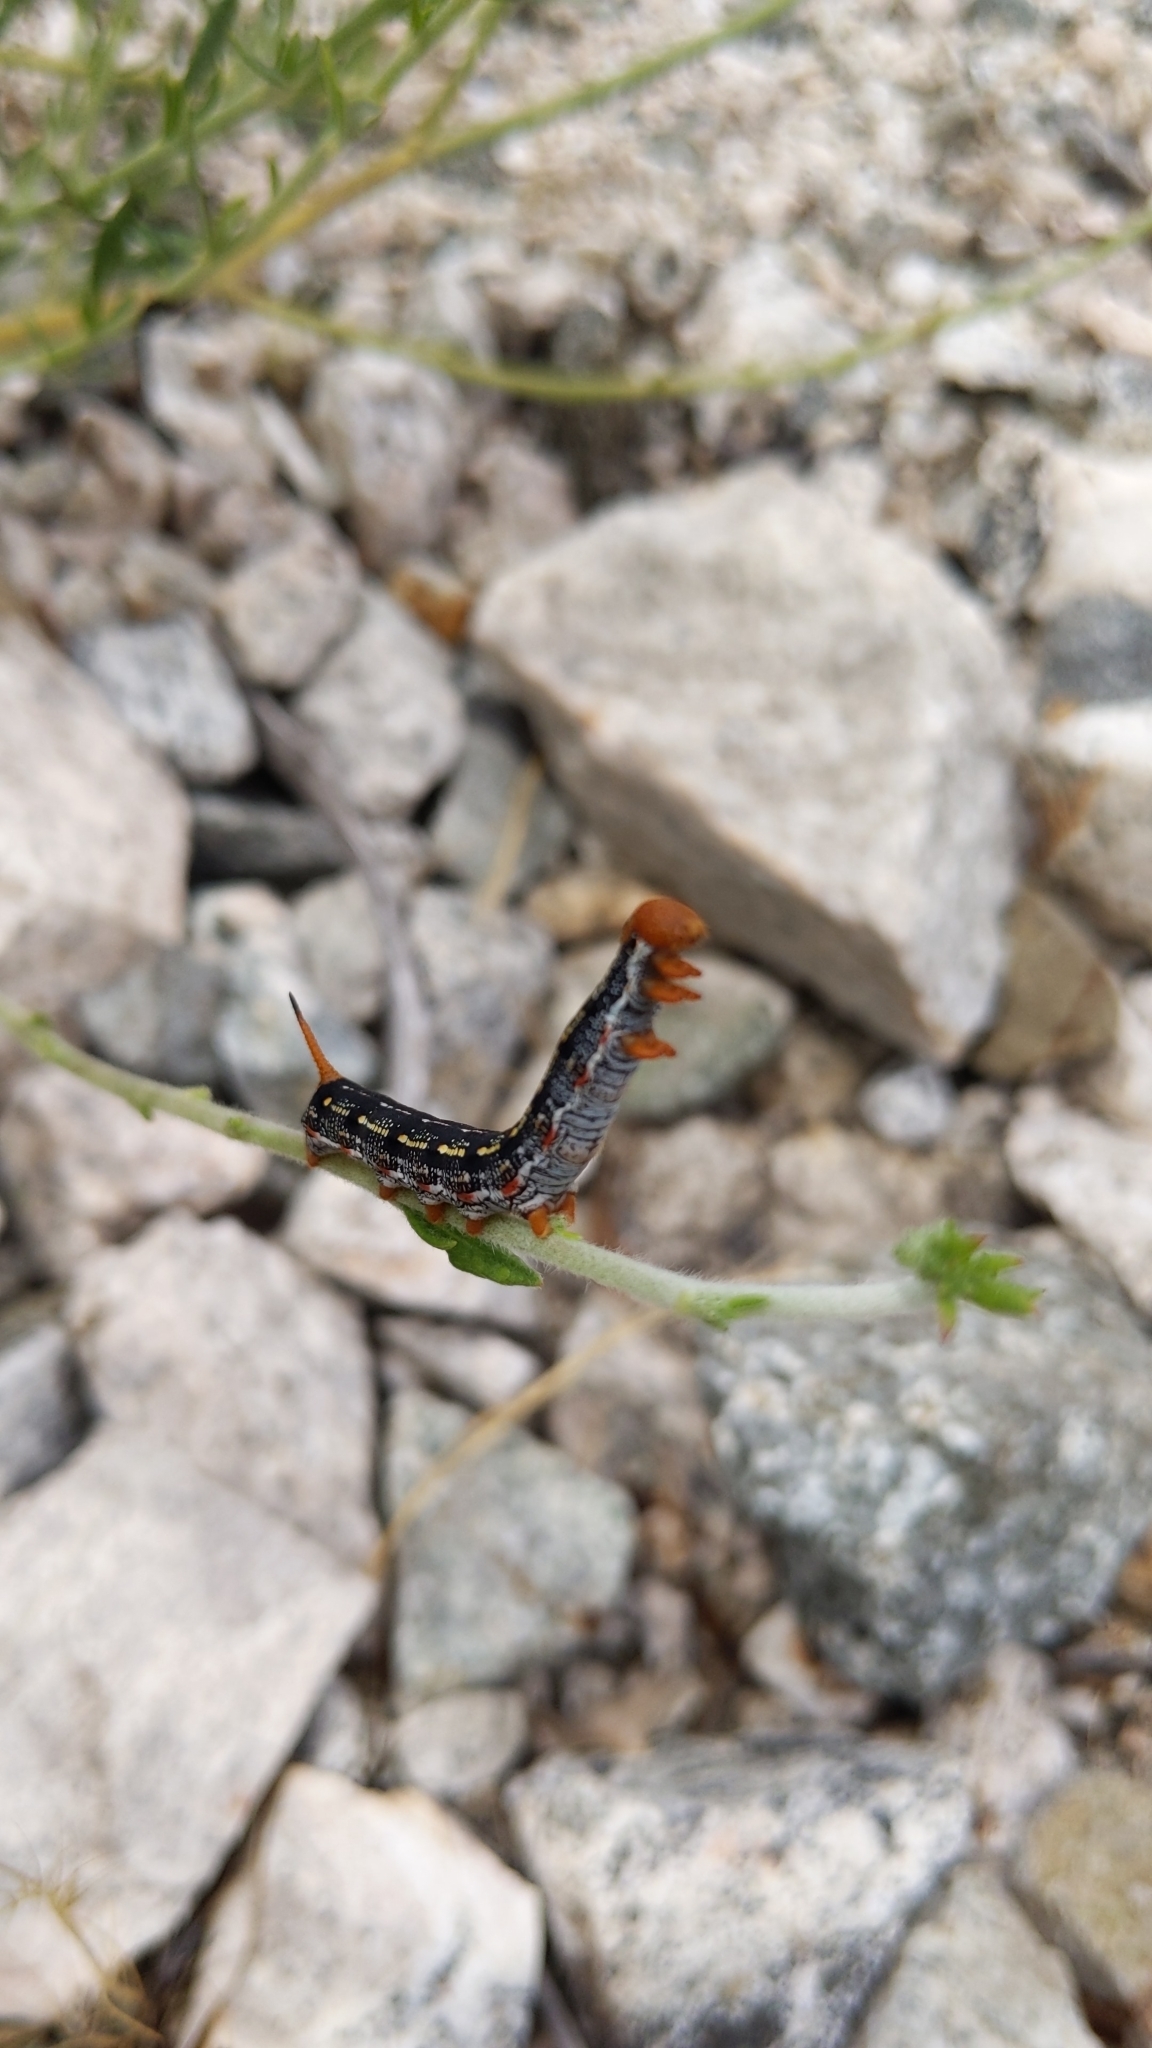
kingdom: Animalia
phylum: Arthropoda
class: Insecta
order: Lepidoptera
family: Sphingidae
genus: Hyles
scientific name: Hyles lineata
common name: White-lined sphinx
